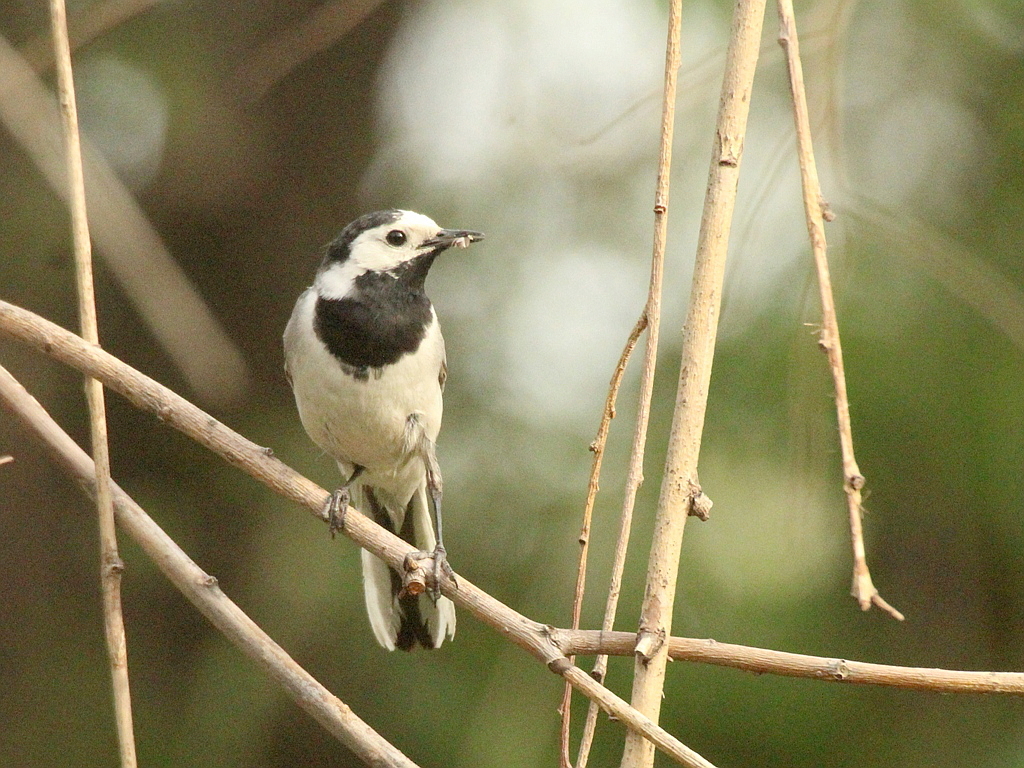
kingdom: Animalia
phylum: Chordata
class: Aves
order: Passeriformes
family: Motacillidae
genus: Motacilla
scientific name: Motacilla alba
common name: White wagtail
